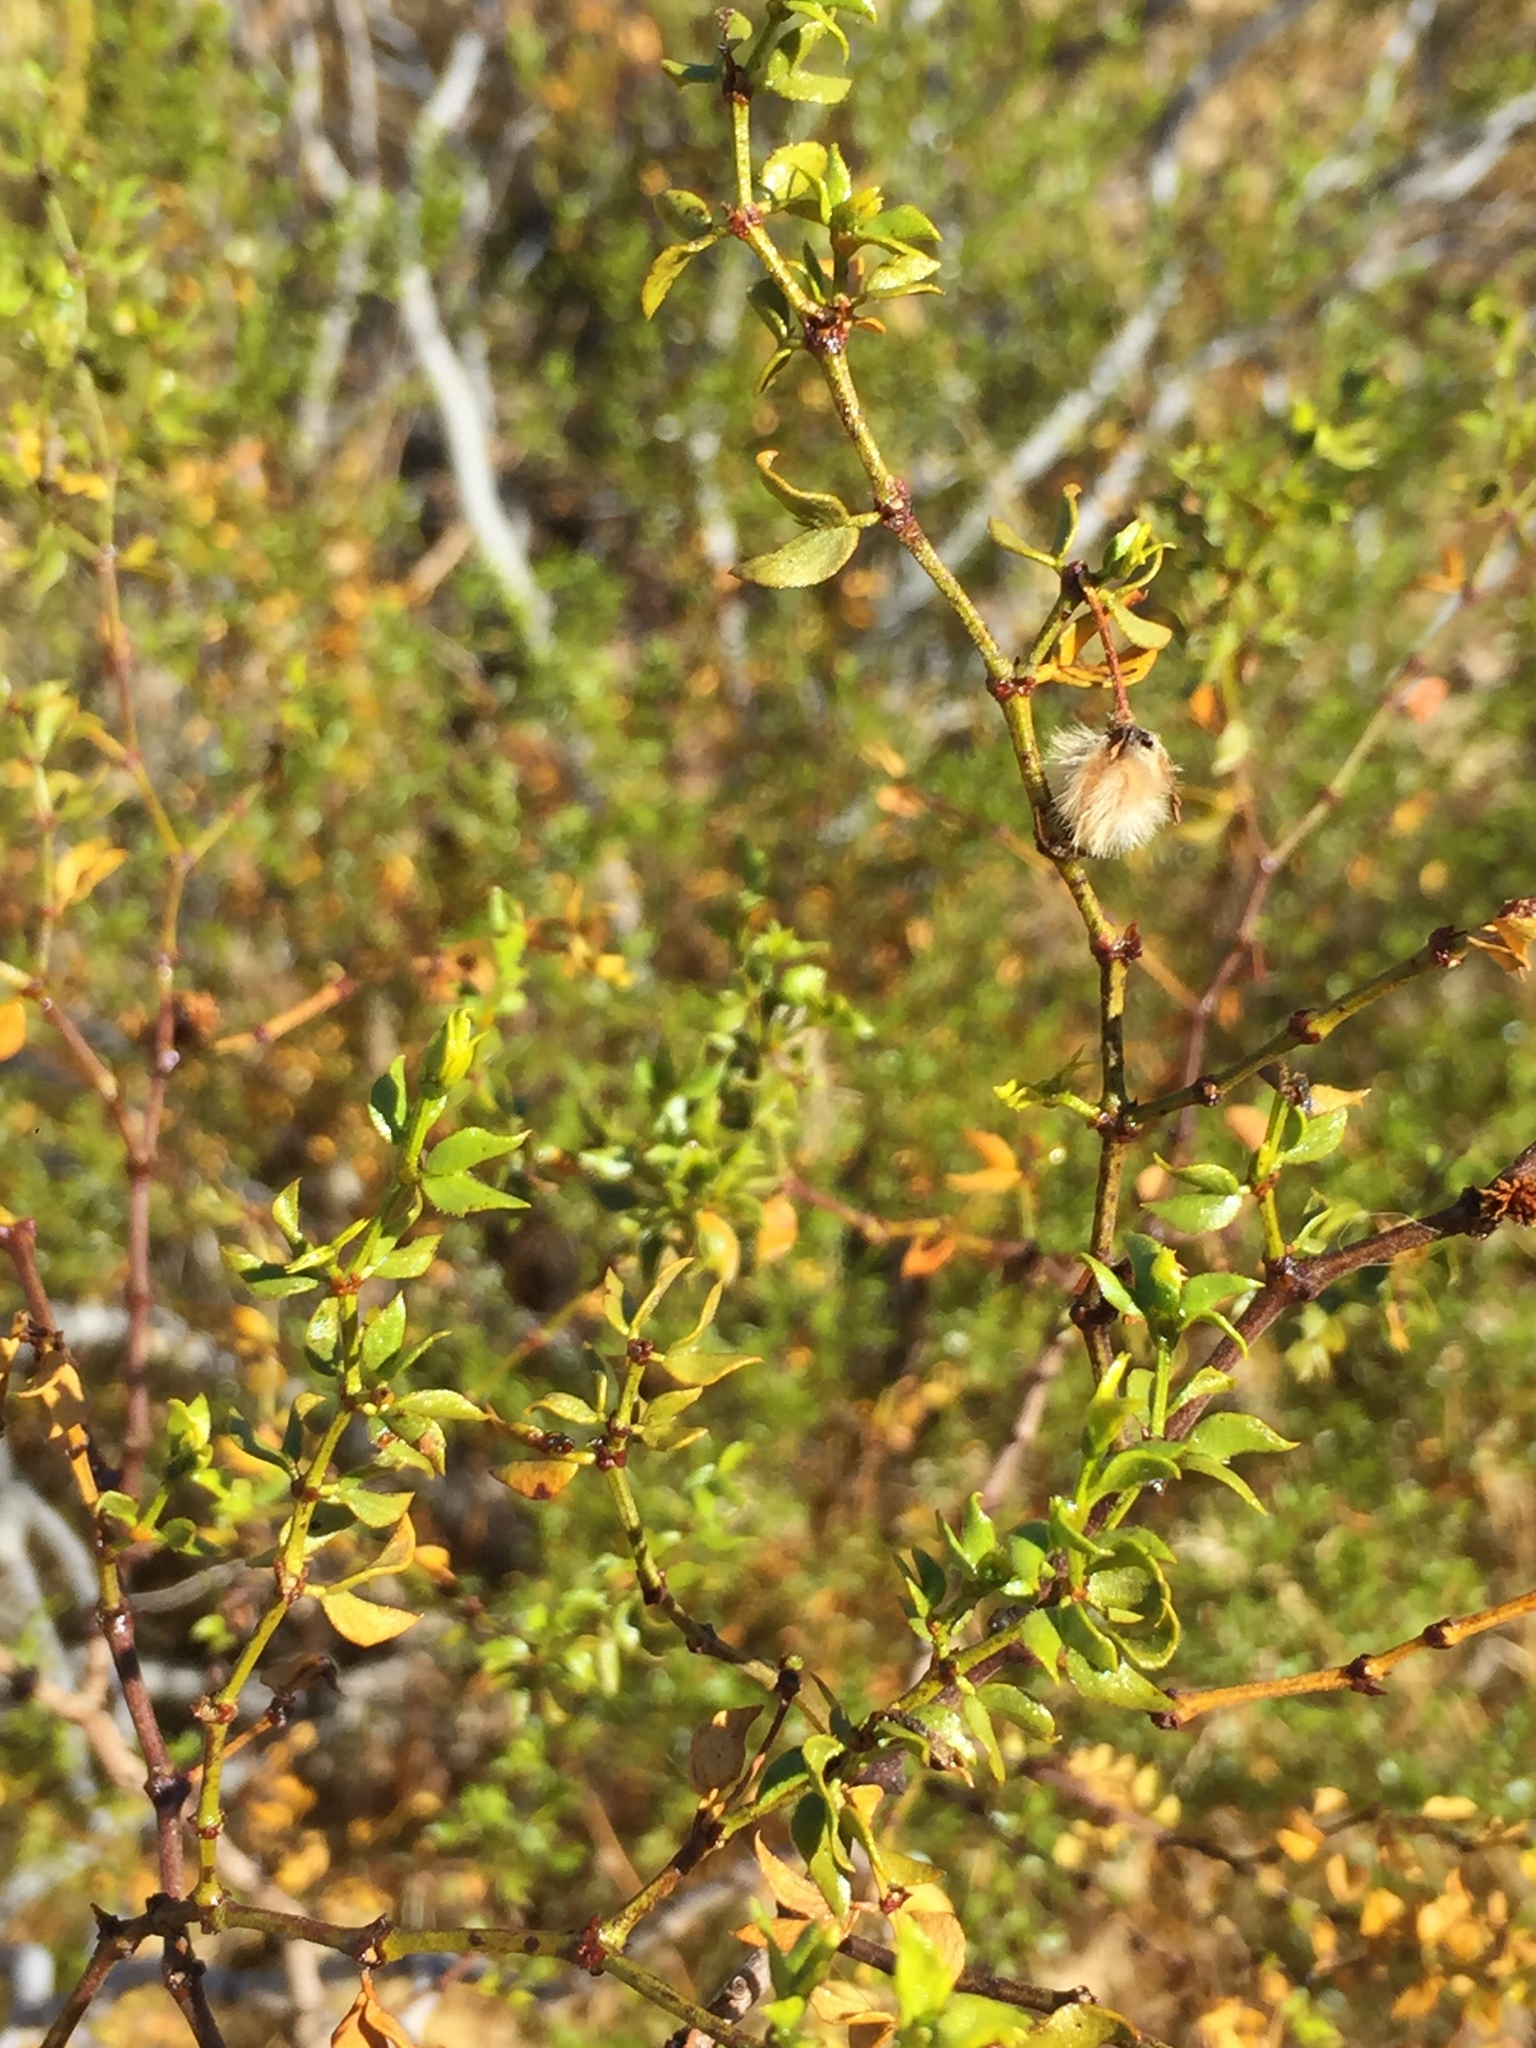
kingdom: Plantae
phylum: Tracheophyta
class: Magnoliopsida
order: Zygophyllales
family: Zygophyllaceae
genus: Larrea
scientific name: Larrea tridentata
